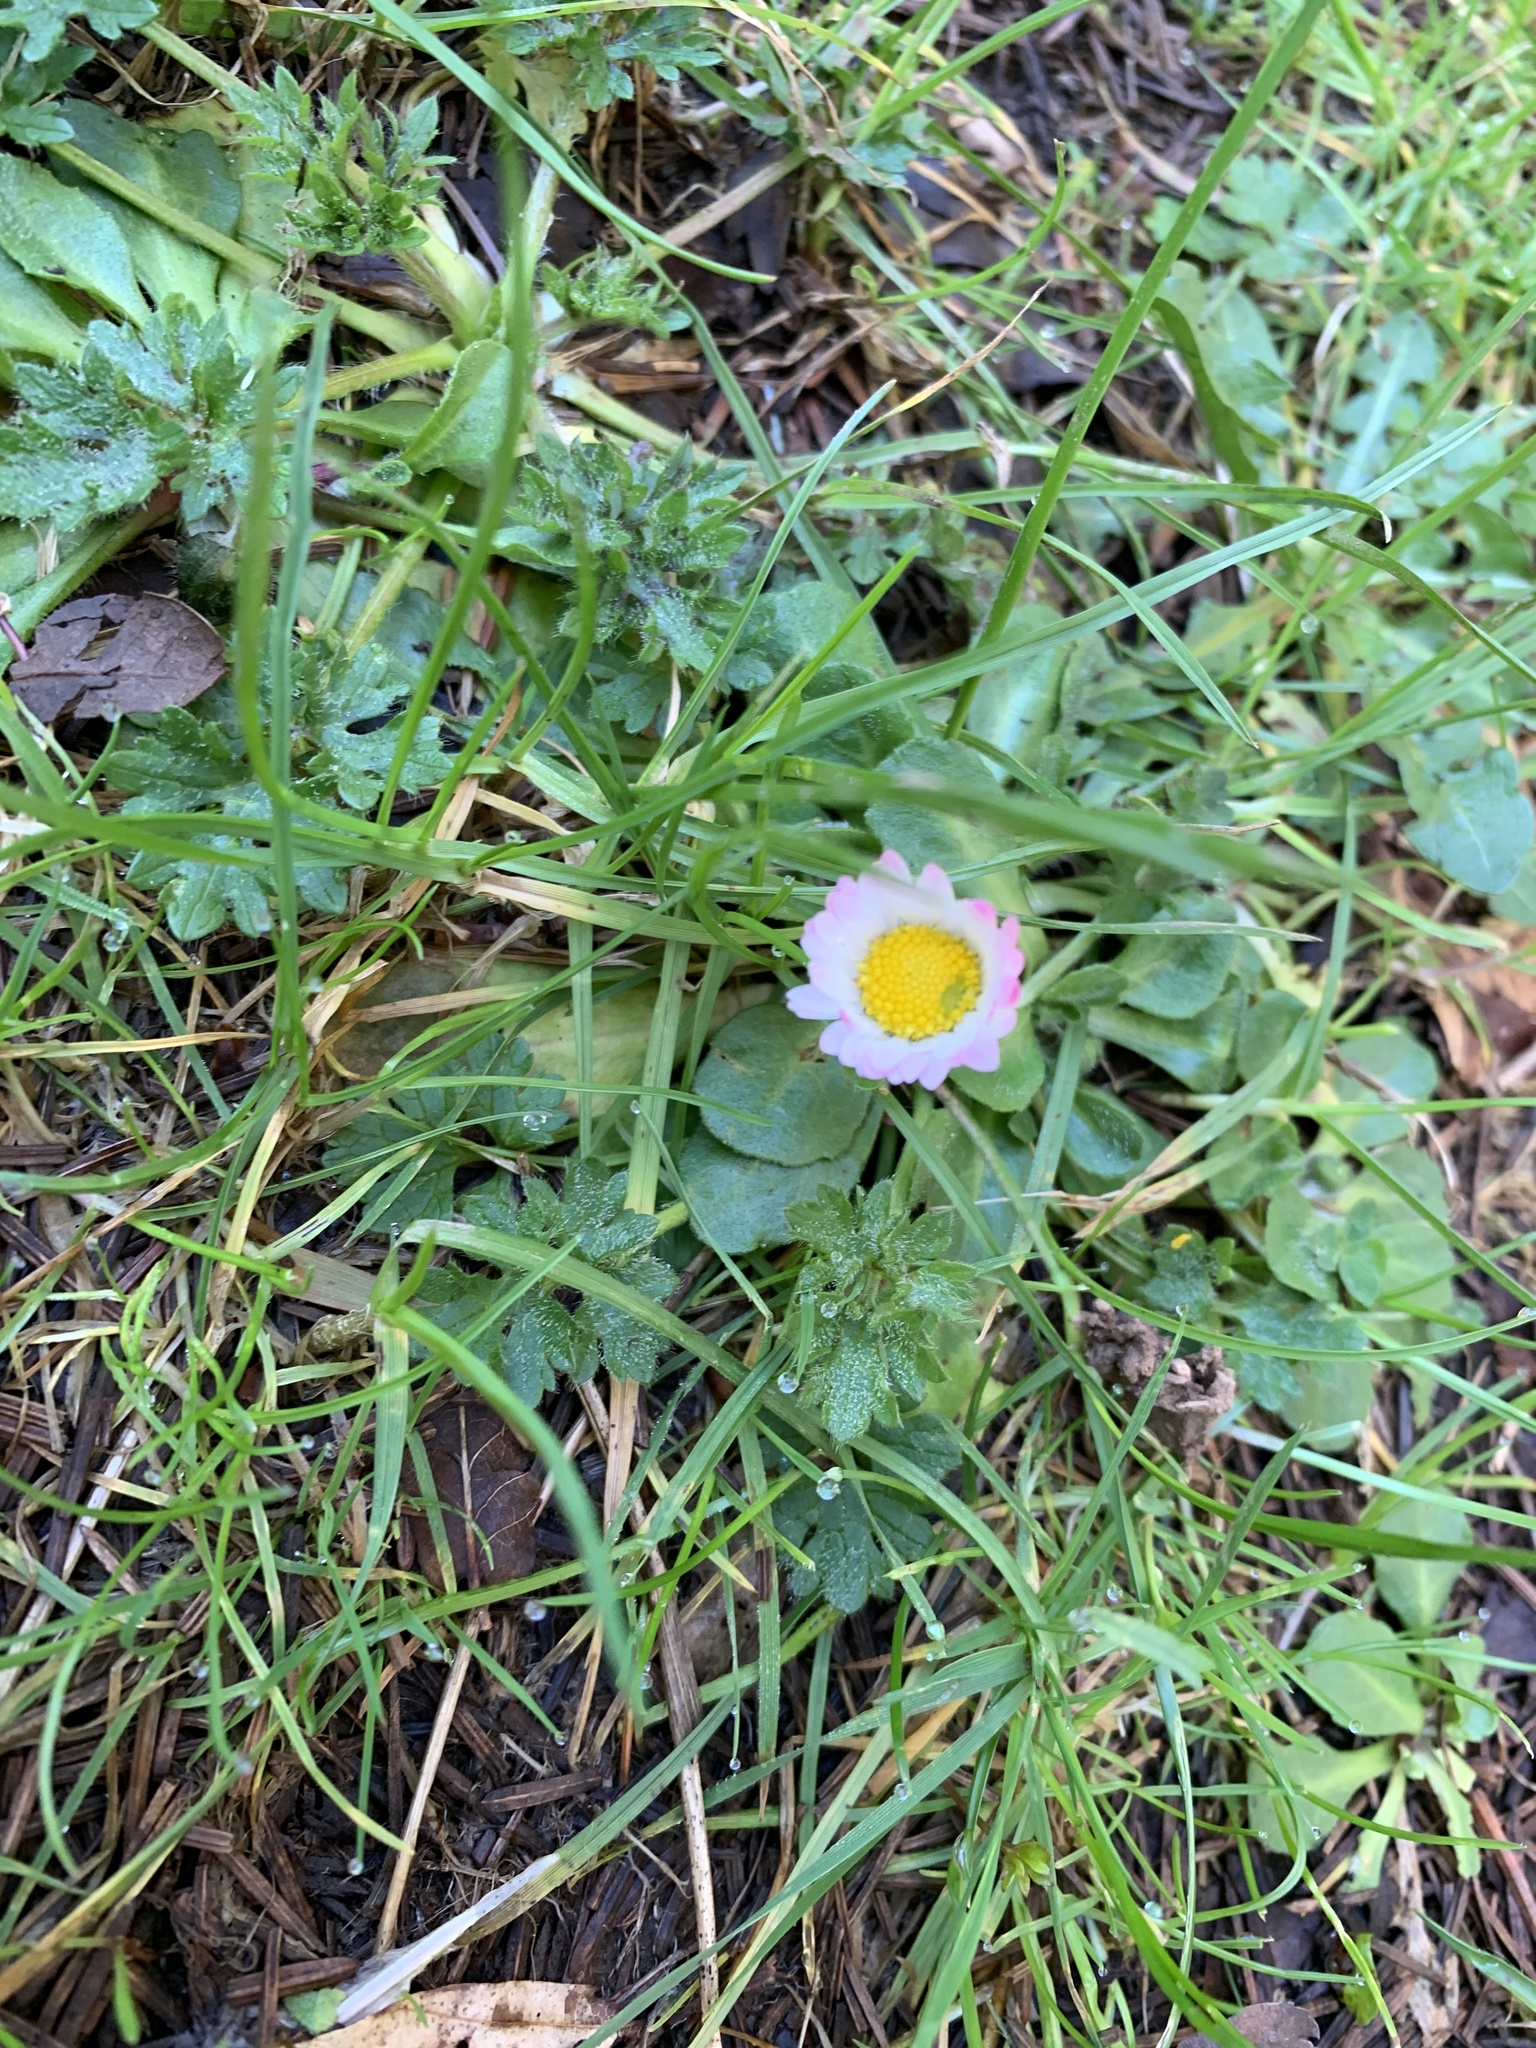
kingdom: Plantae
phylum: Tracheophyta
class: Magnoliopsida
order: Asterales
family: Asteraceae
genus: Bellis
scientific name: Bellis perennis
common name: Lawndaisy
